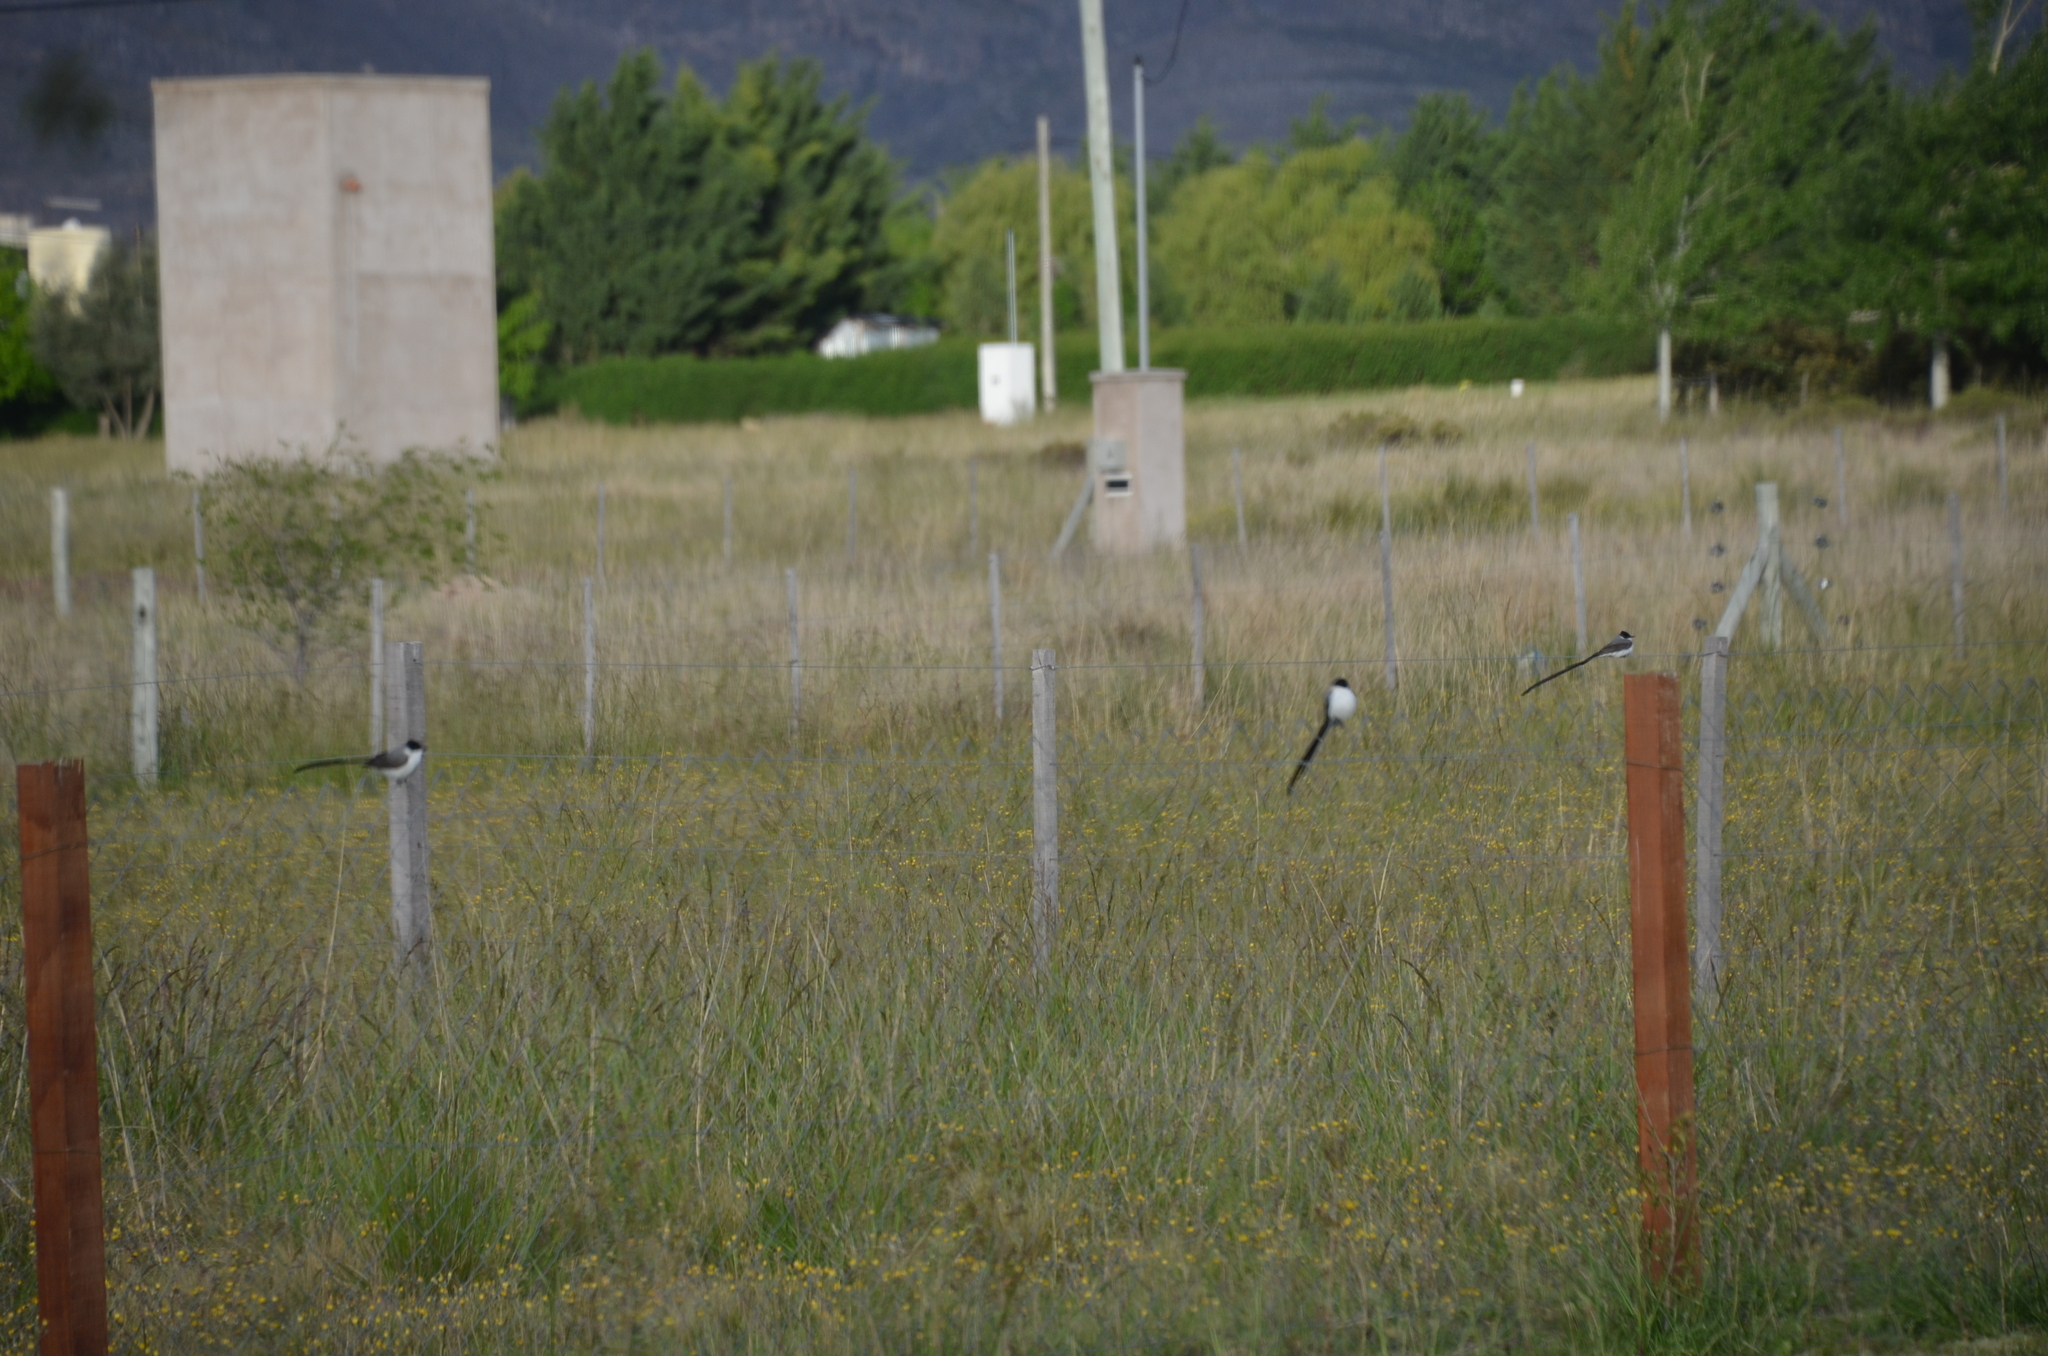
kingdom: Animalia
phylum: Chordata
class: Aves
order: Passeriformes
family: Tyrannidae
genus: Tyrannus
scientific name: Tyrannus savana
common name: Fork-tailed flycatcher
